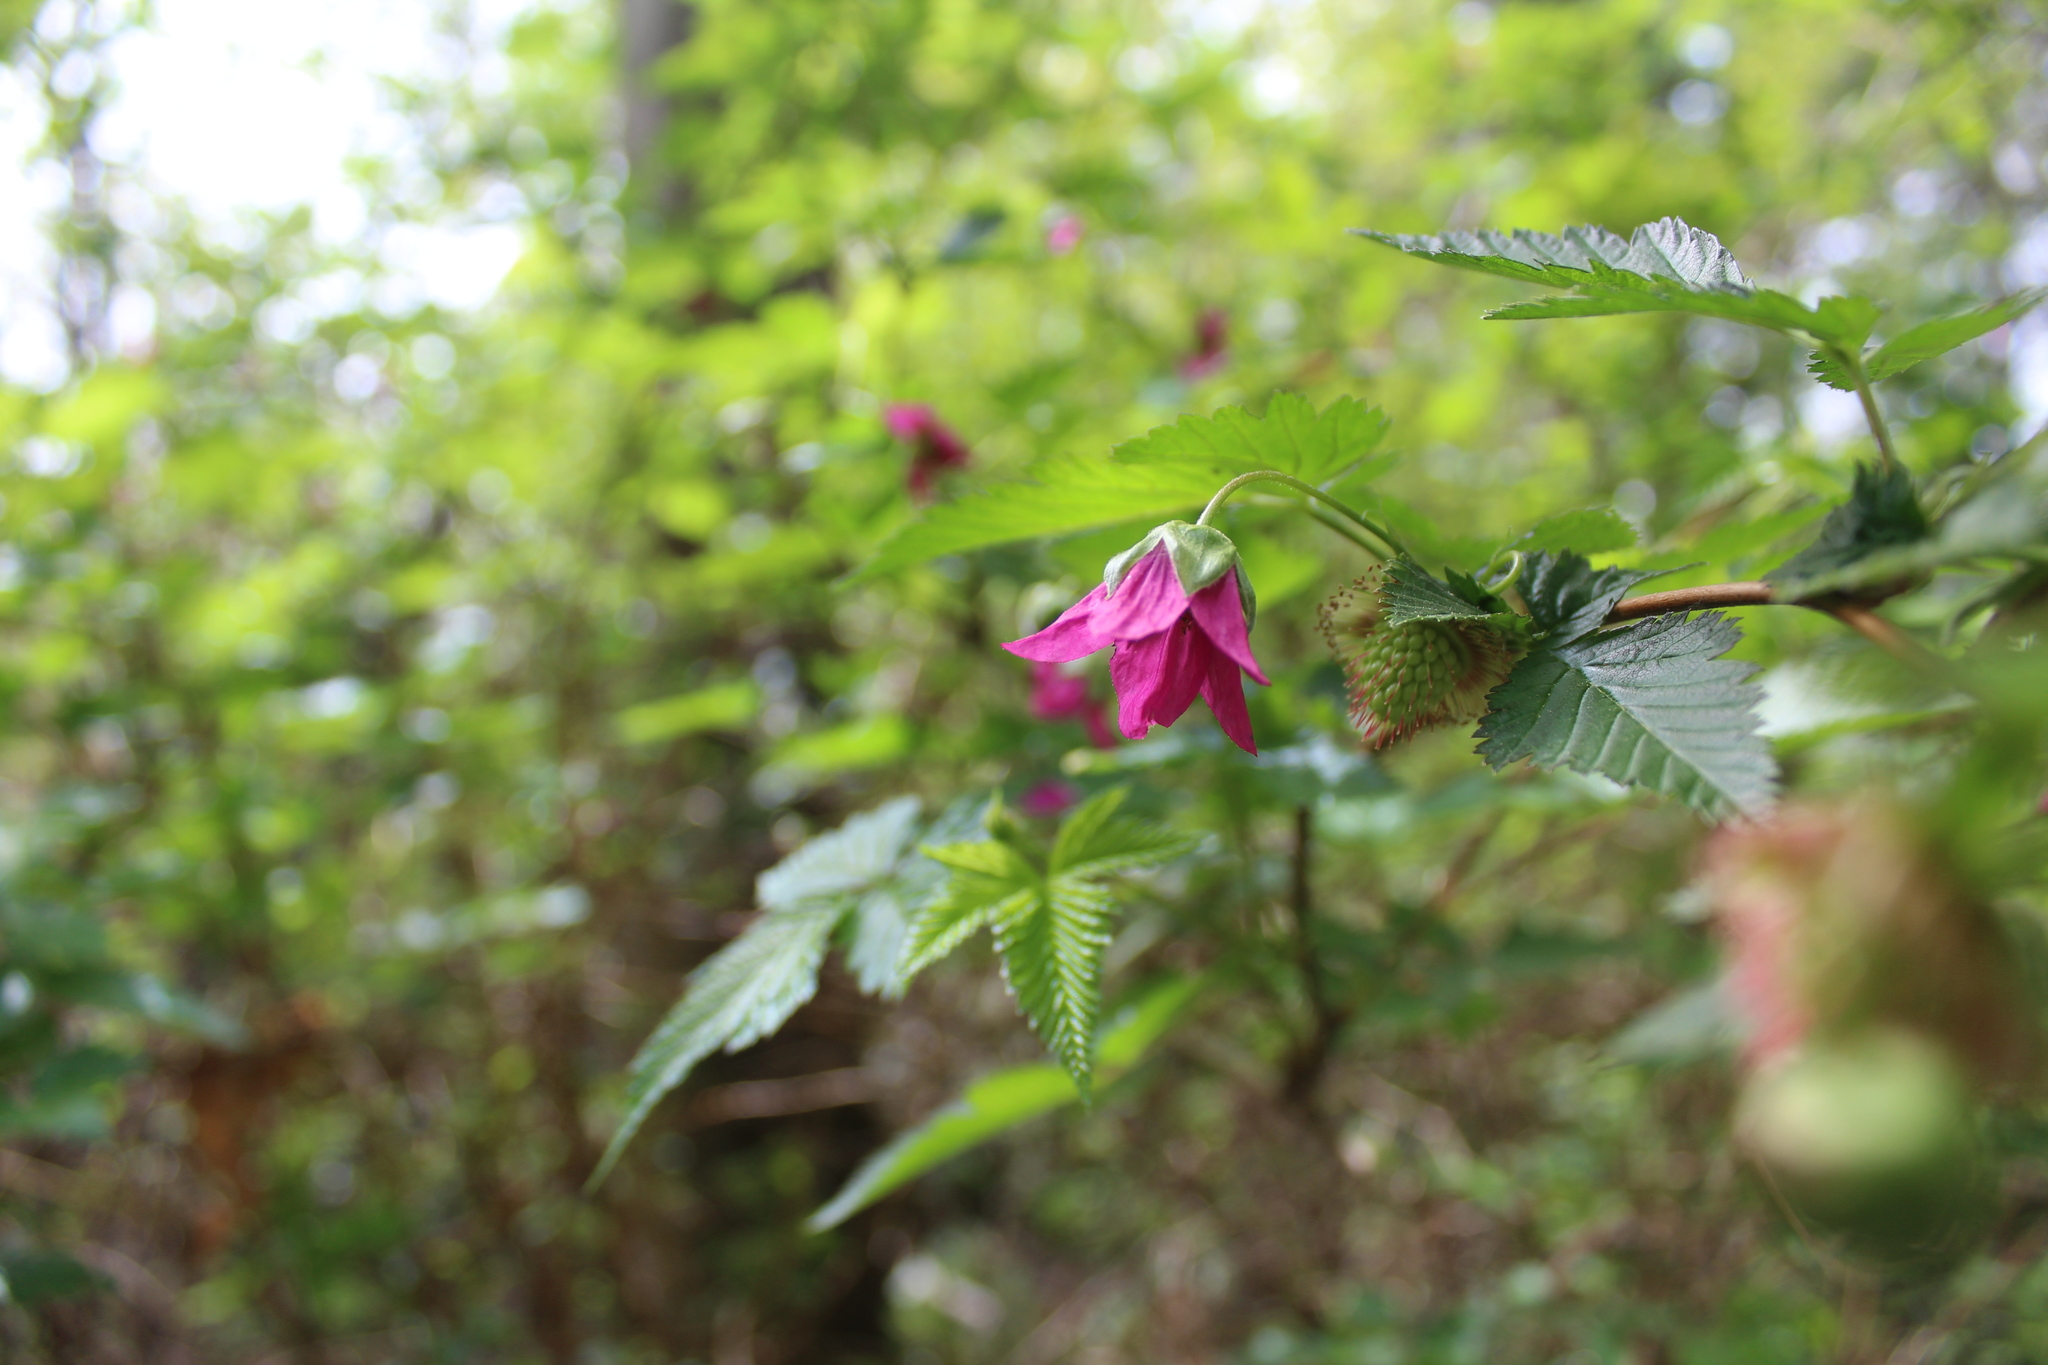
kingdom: Plantae
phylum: Tracheophyta
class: Magnoliopsida
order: Rosales
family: Rosaceae
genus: Rubus
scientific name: Rubus spectabilis
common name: Salmonberry
